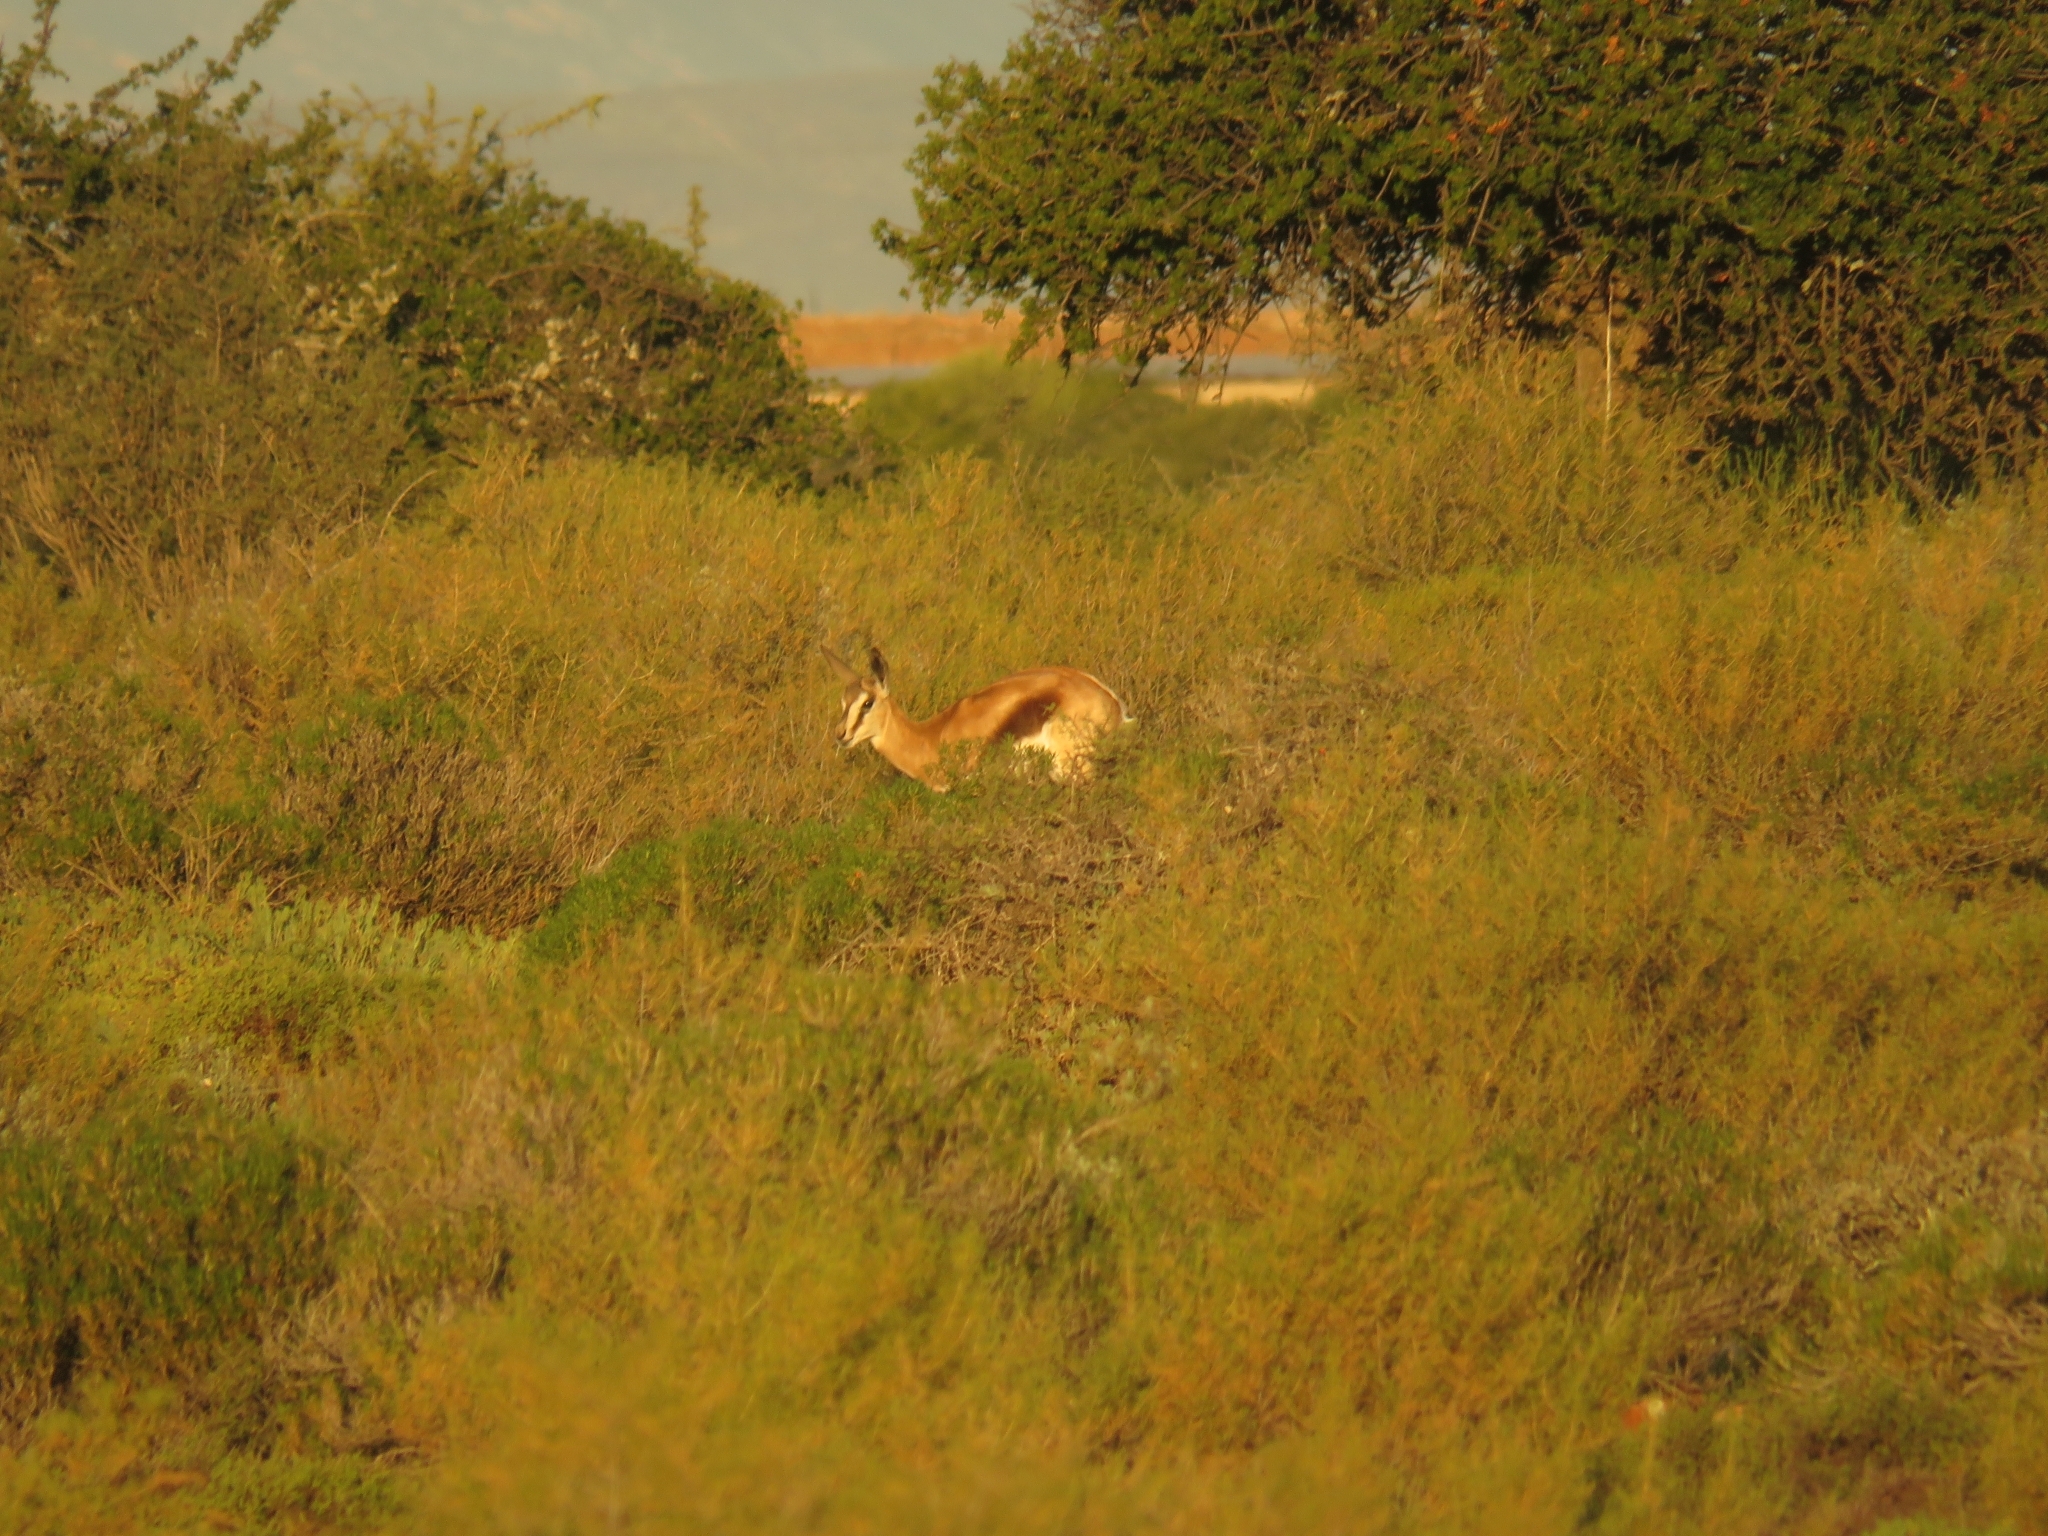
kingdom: Animalia
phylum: Chordata
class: Mammalia
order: Artiodactyla
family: Bovidae
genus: Antidorcas
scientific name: Antidorcas marsupialis
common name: Springbok
